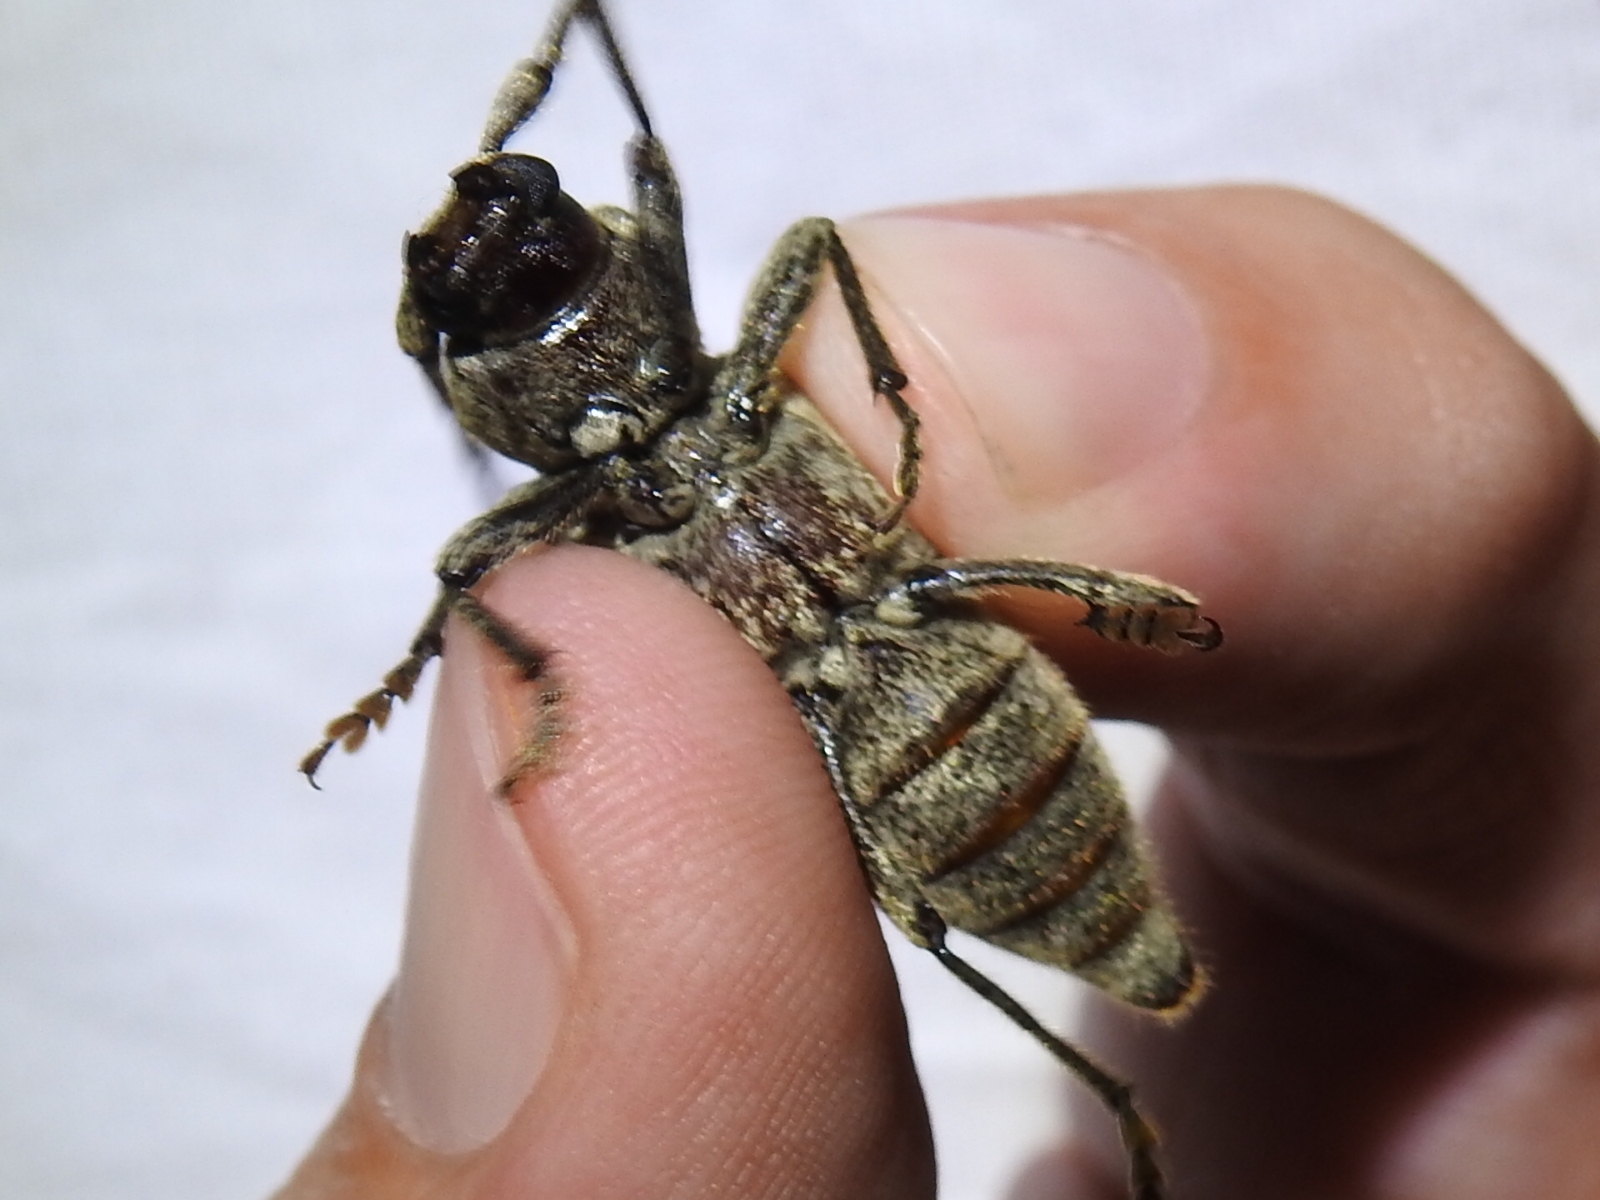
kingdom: Animalia
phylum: Arthropoda
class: Insecta
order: Coleoptera
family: Cerambycidae
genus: Enaphalodes
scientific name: Enaphalodes atomarius
